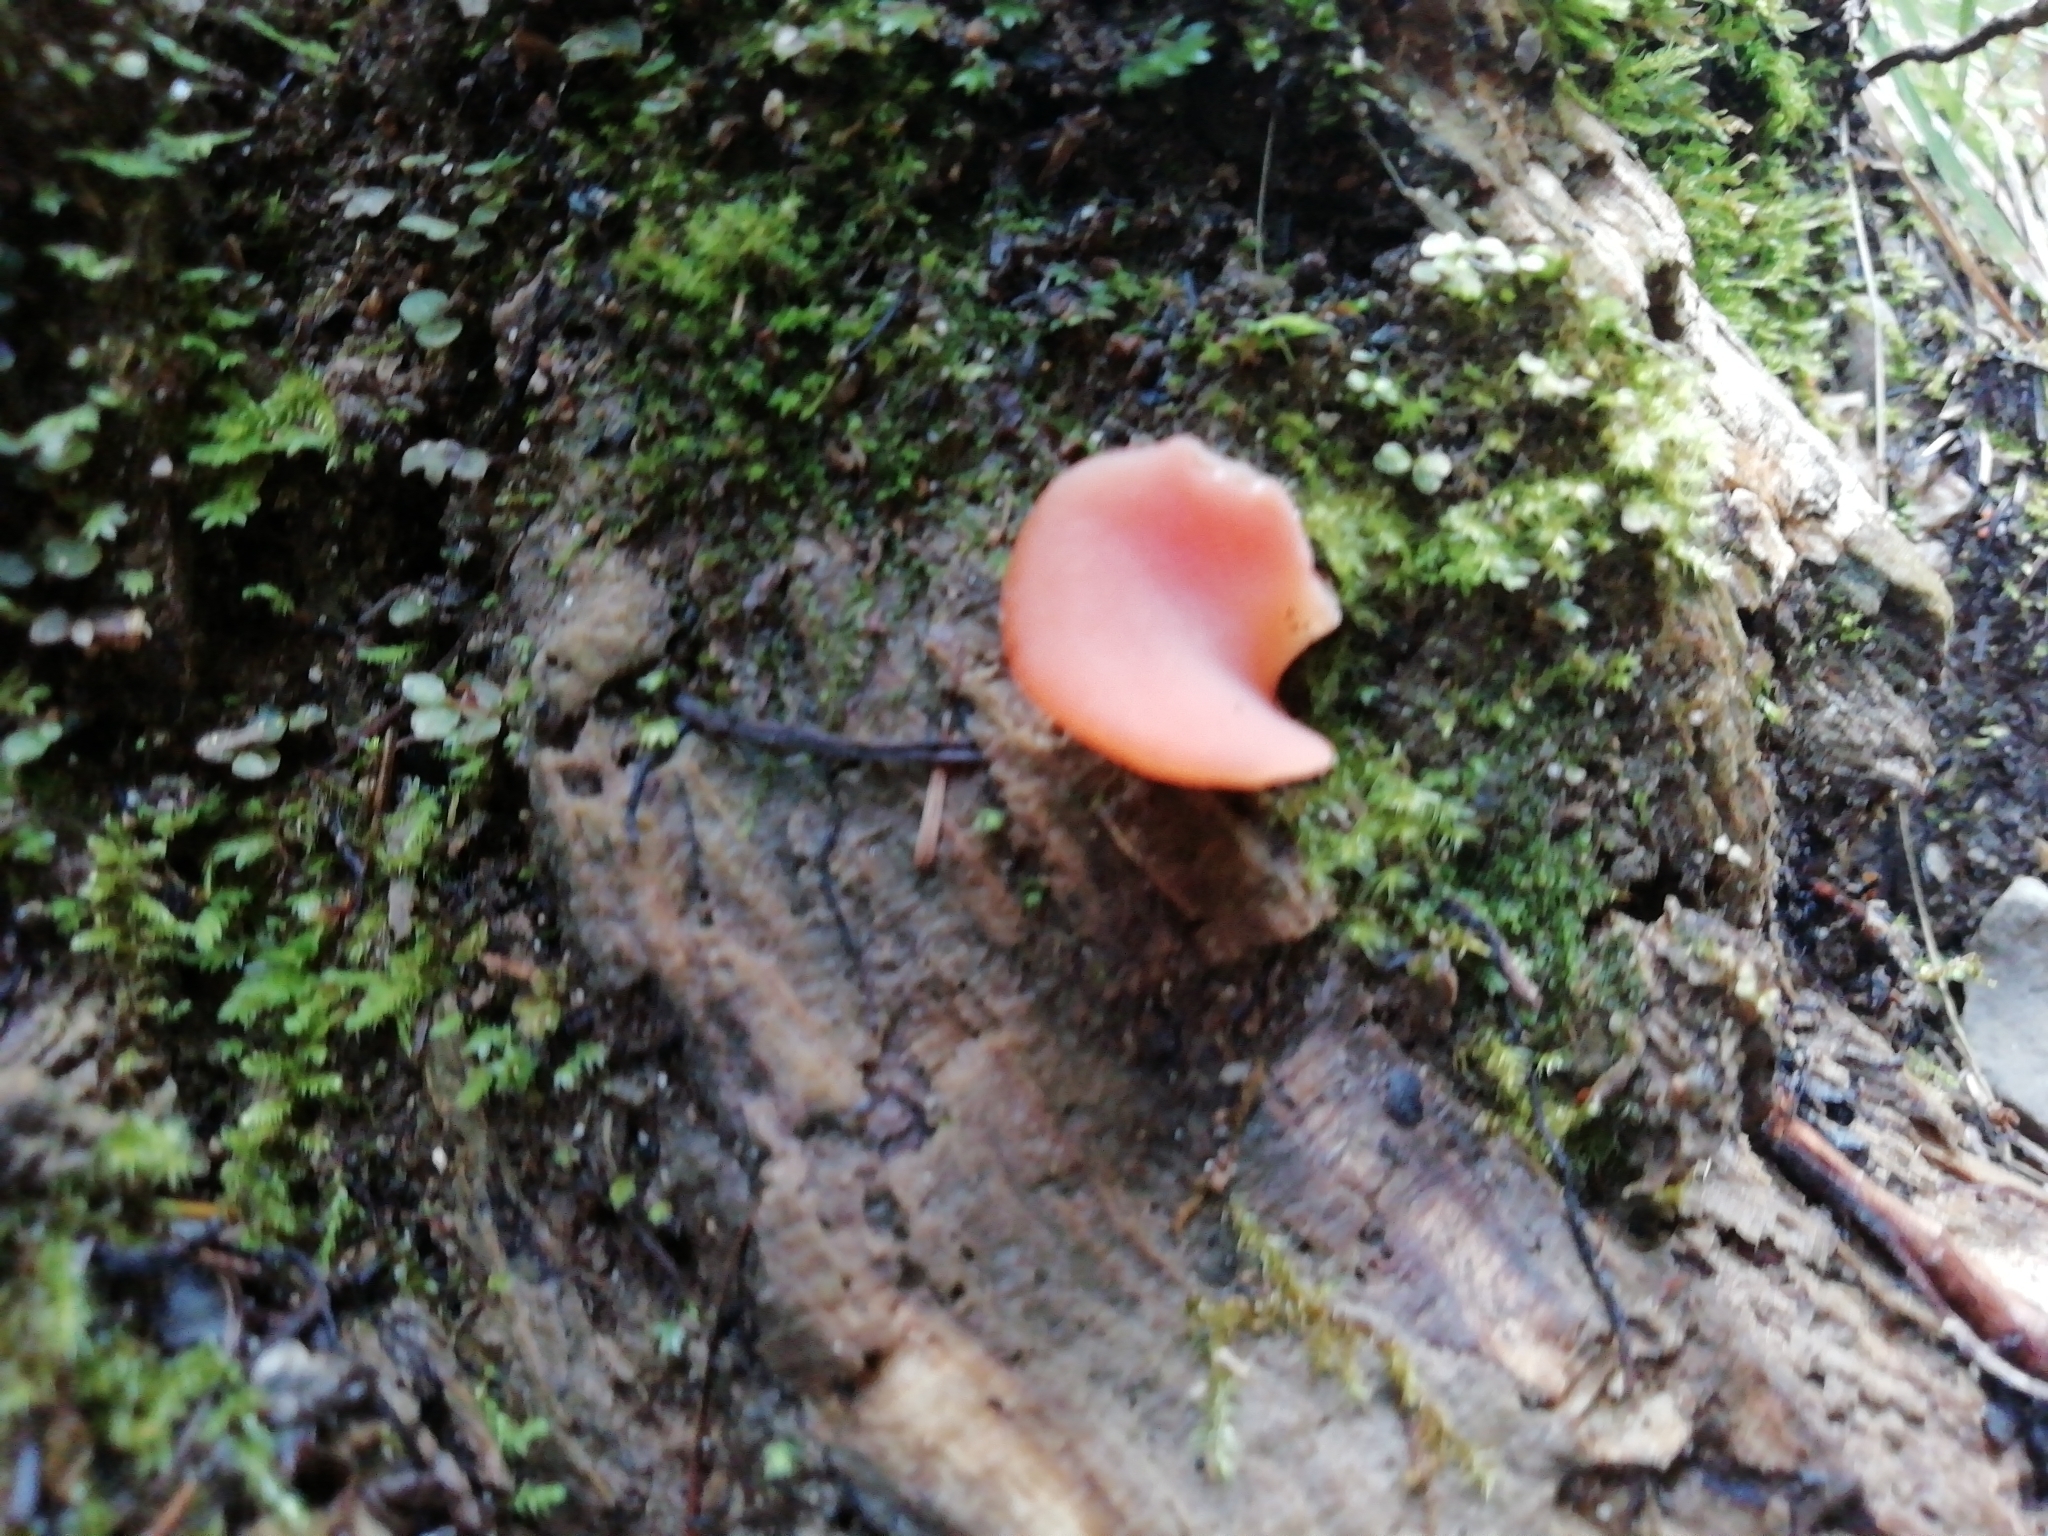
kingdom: Fungi
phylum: Basidiomycota
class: Agaricomycetes
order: Auriculariales
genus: Guepinia
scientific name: Guepinia helvelloides
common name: Salmon salad
